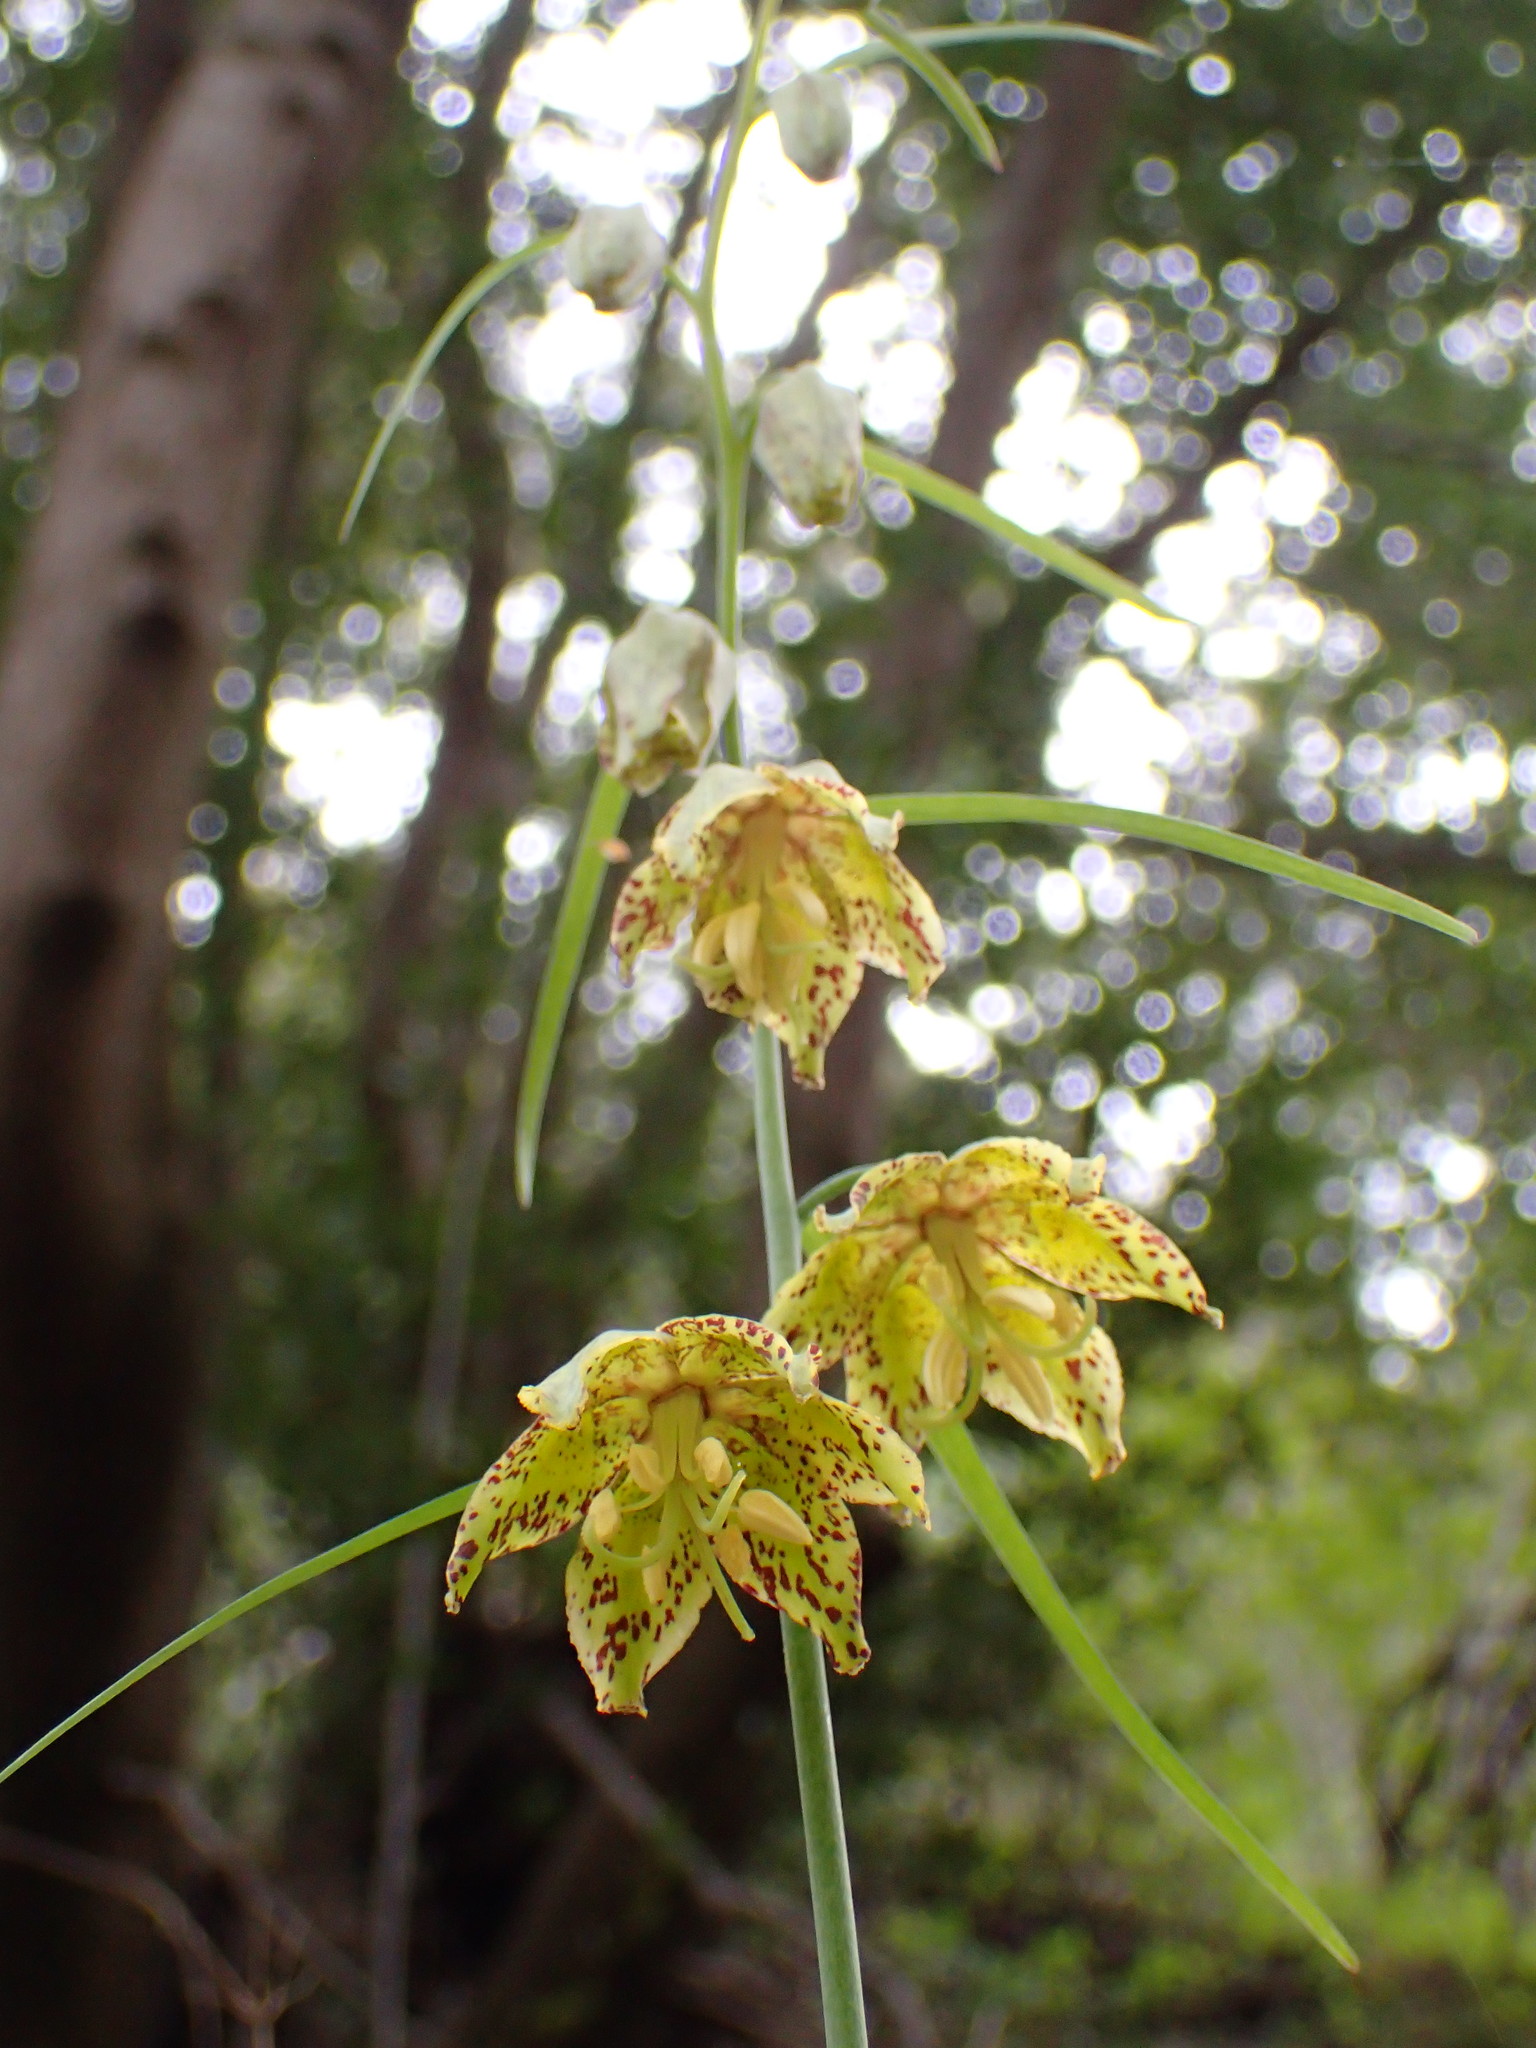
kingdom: Plantae
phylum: Tracheophyta
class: Liliopsida
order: Liliales
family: Liliaceae
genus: Fritillaria
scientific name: Fritillaria ojaiensis
